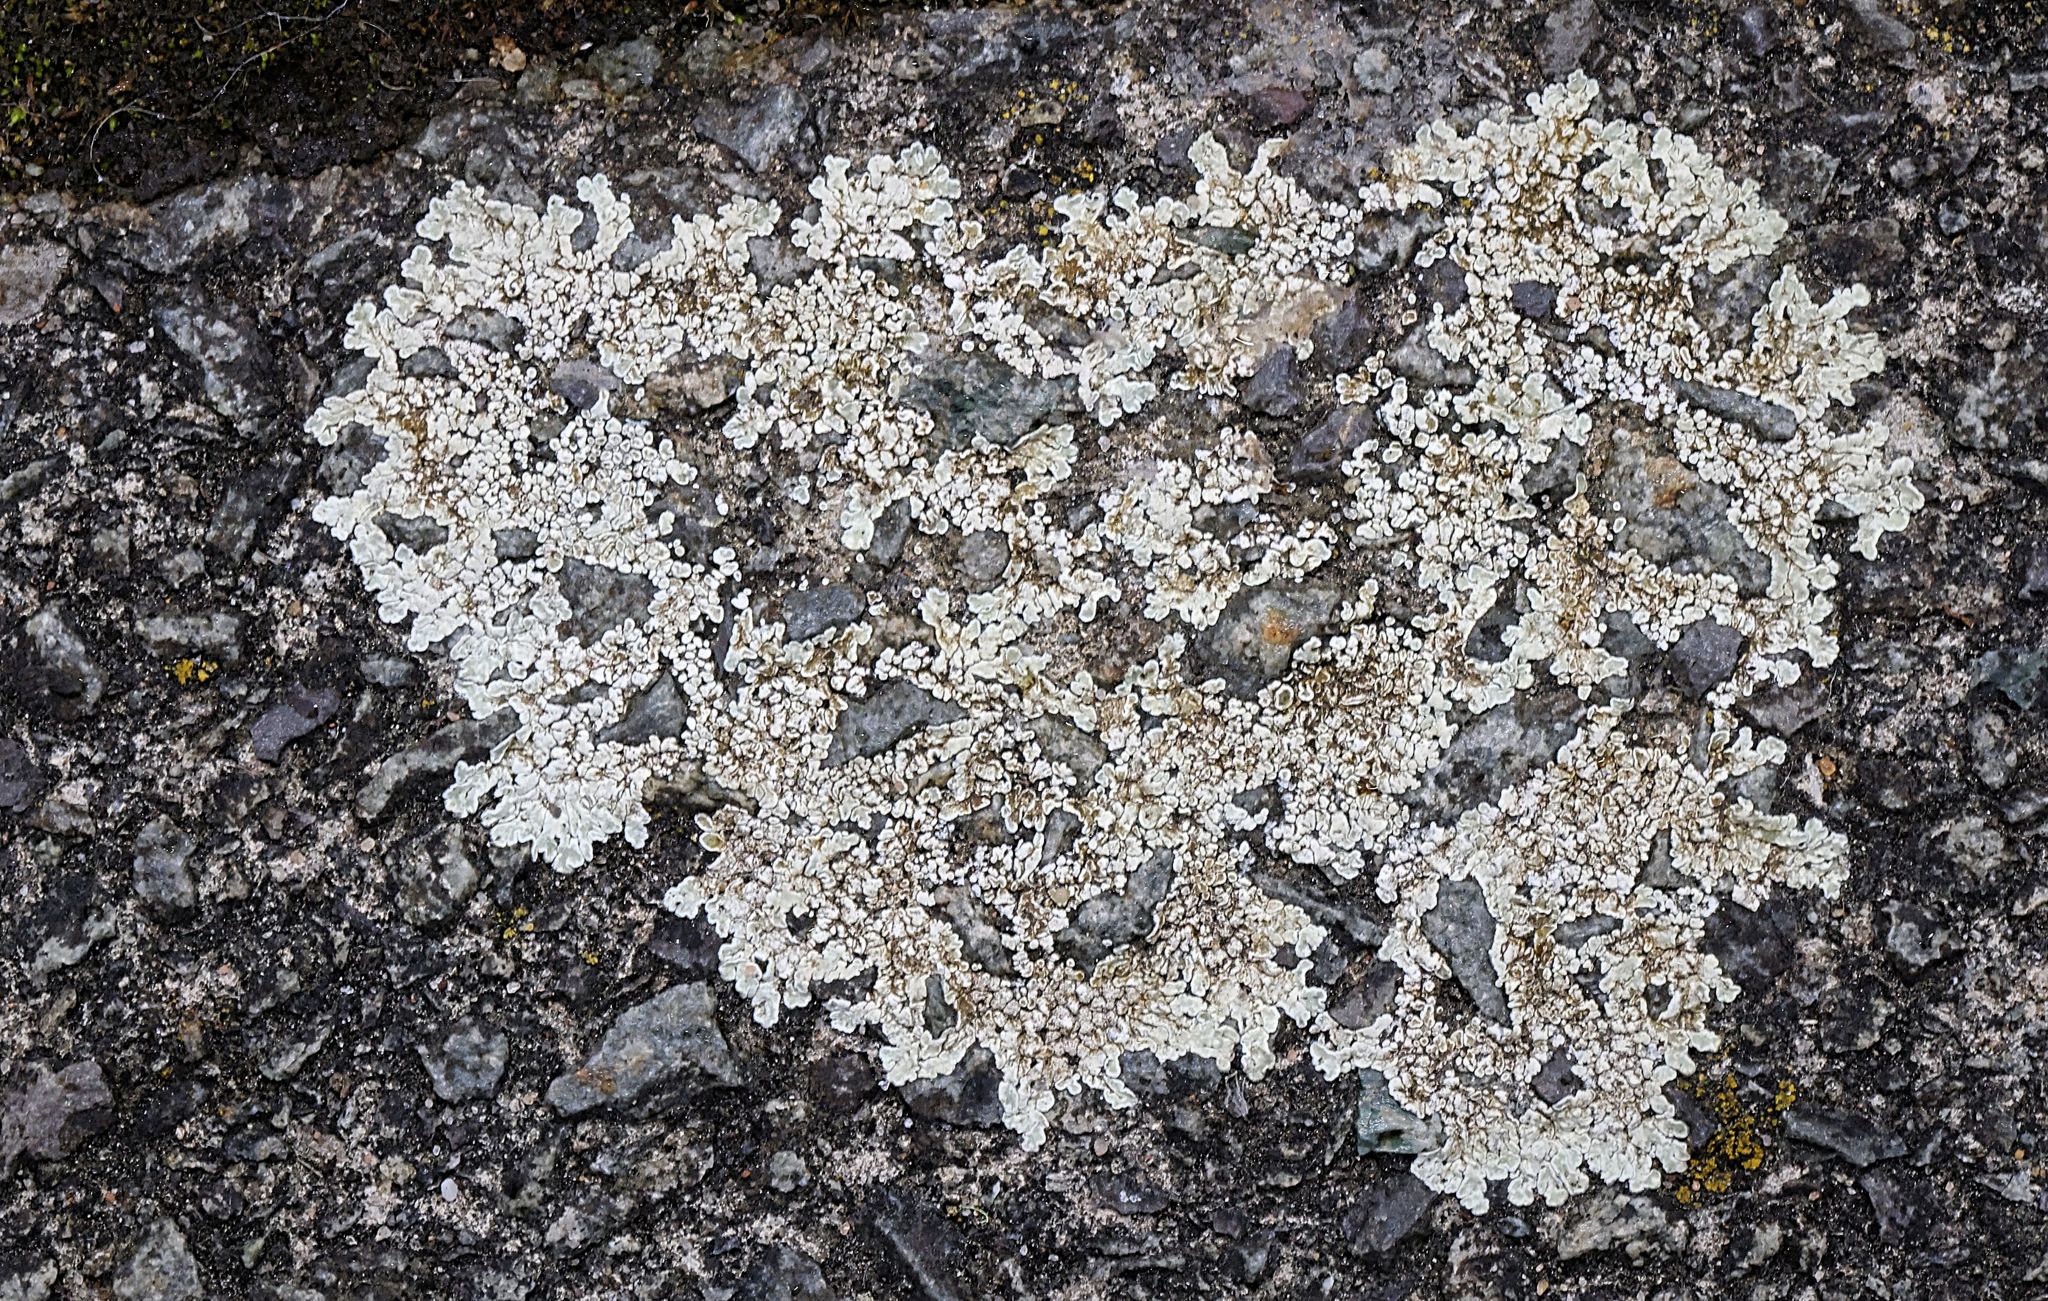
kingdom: Fungi
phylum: Ascomycota
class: Lecanoromycetes
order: Lecanorales
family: Lecanoraceae
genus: Protoparmeliopsis
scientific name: Protoparmeliopsis muralis
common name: Stonewall rim lichen
